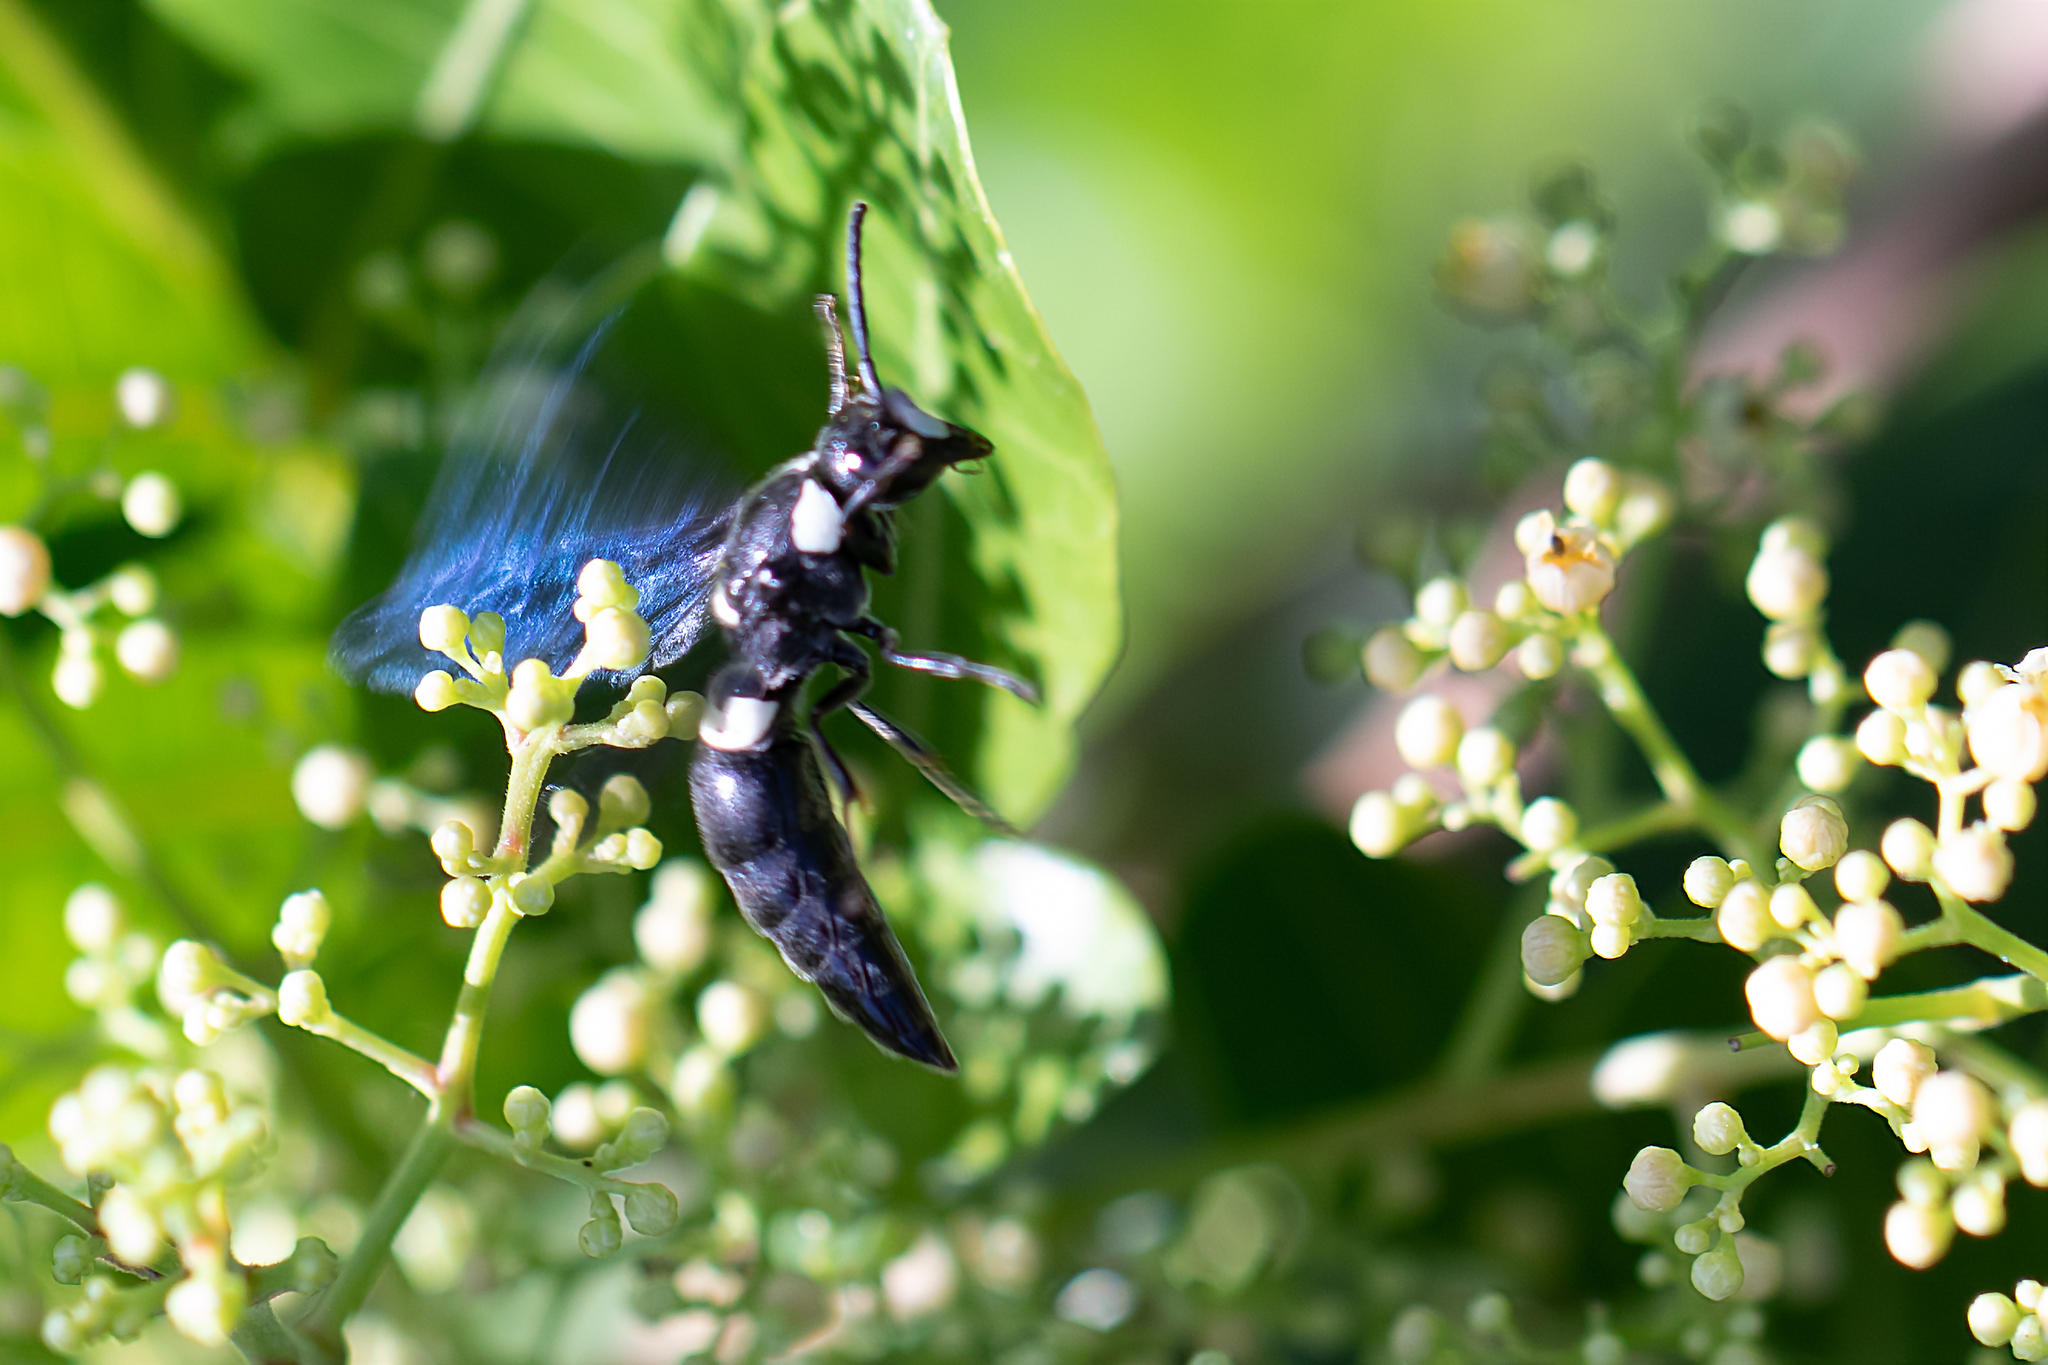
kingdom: Animalia
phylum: Arthropoda
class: Insecta
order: Hymenoptera
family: Eumenidae
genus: Monobia
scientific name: Monobia quadridens
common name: Four-toothed mason wasp
